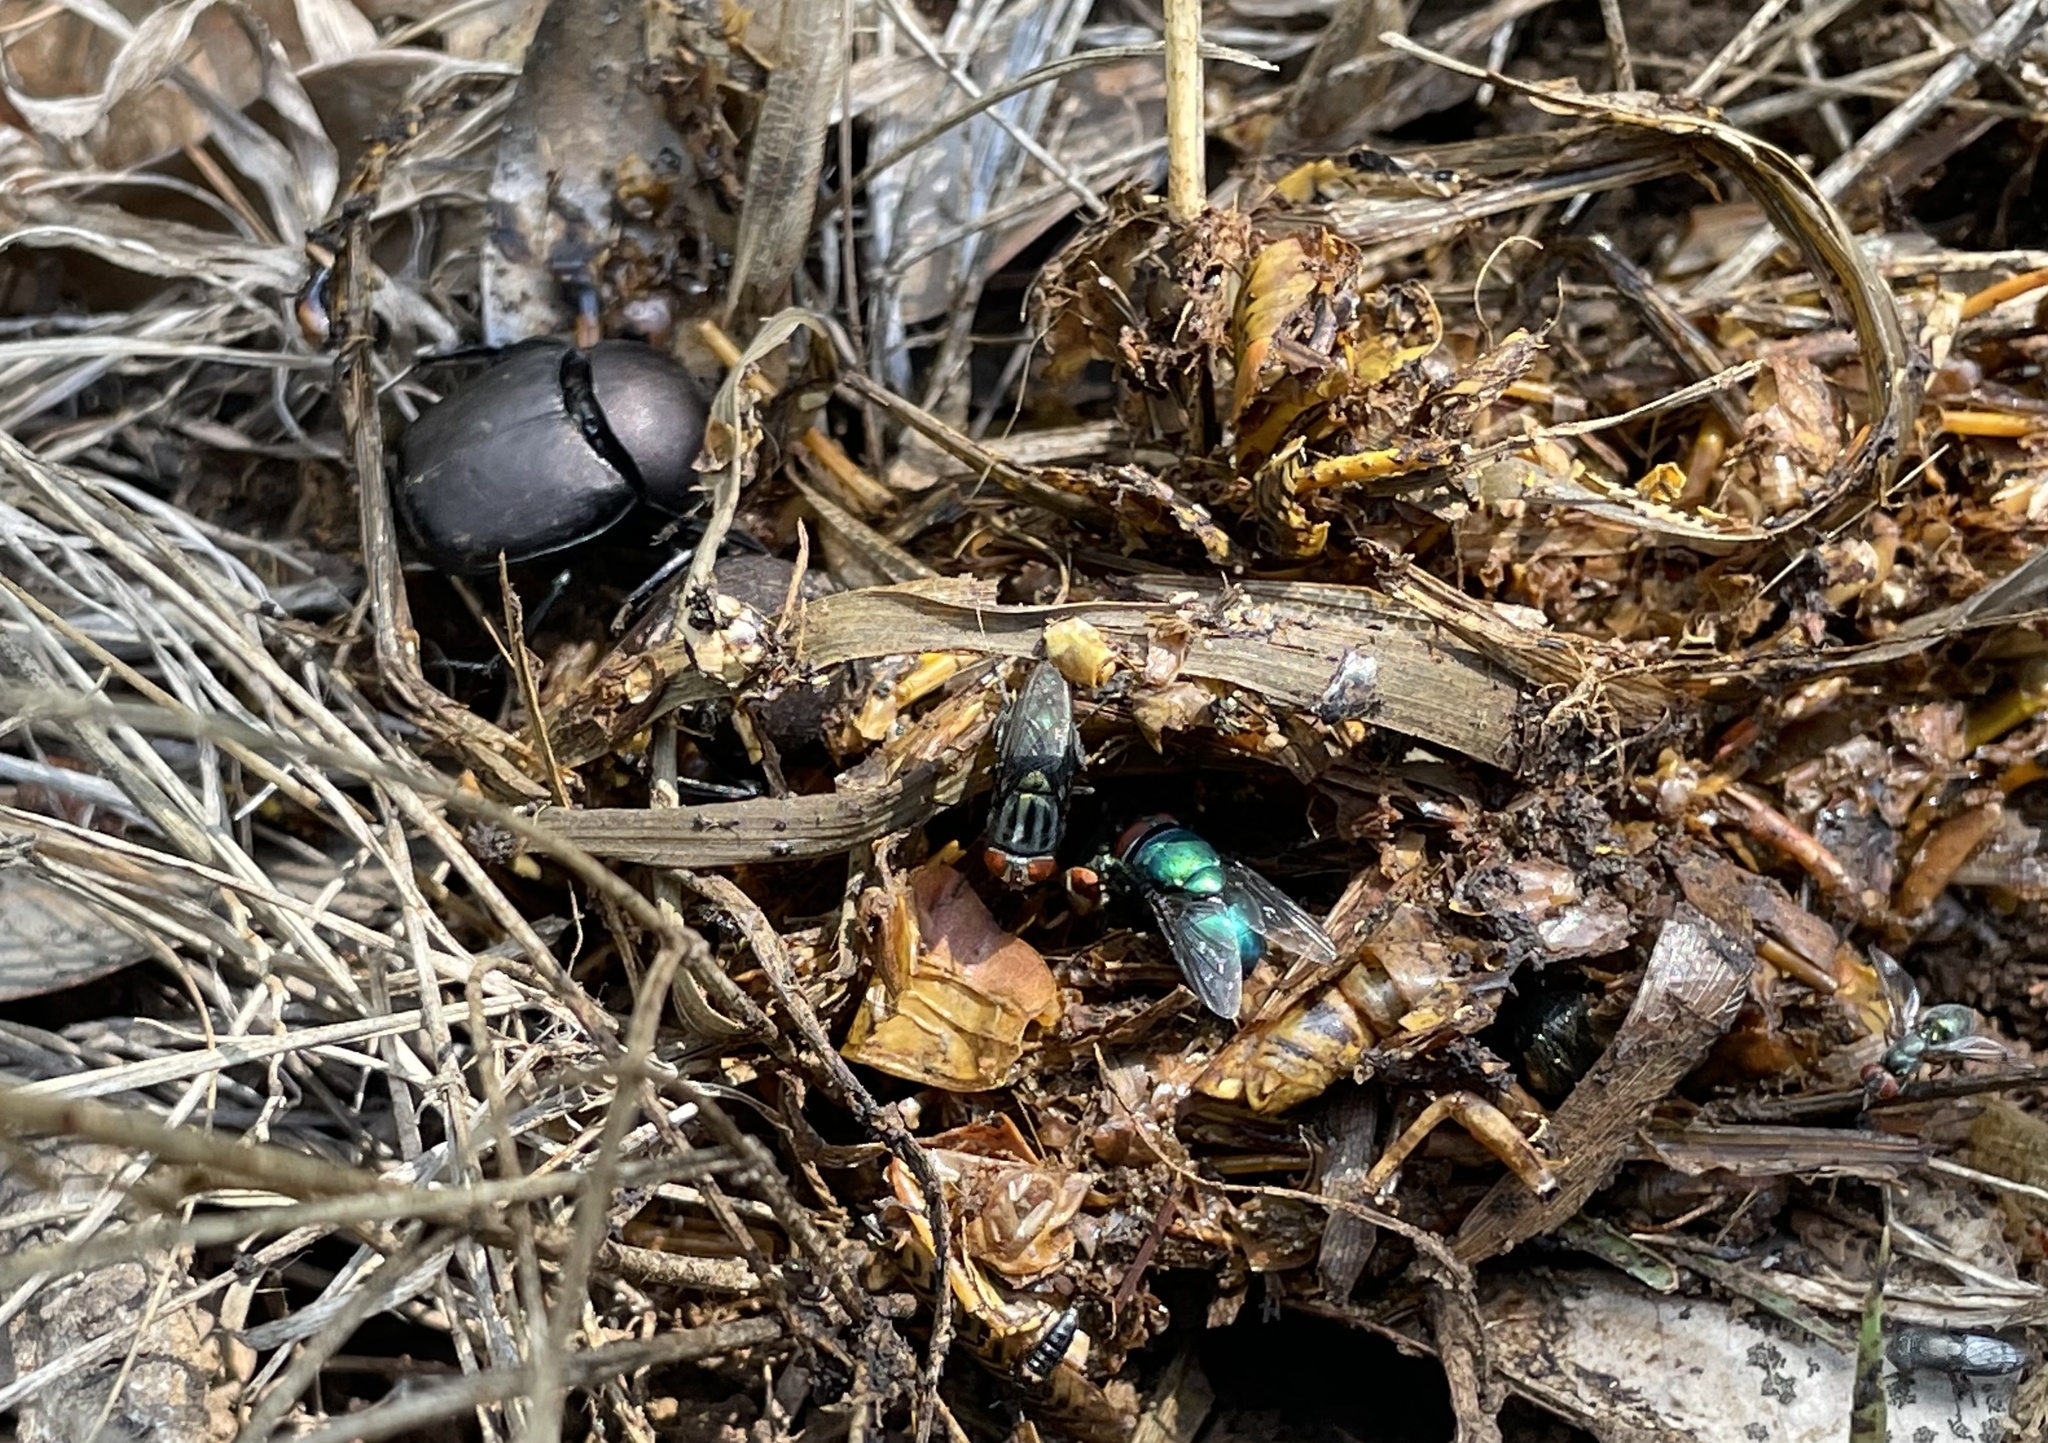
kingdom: Animalia
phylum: Arthropoda
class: Insecta
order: Coleoptera
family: Scarabaeidae
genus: Phanaeus
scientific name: Phanaeus texensis
